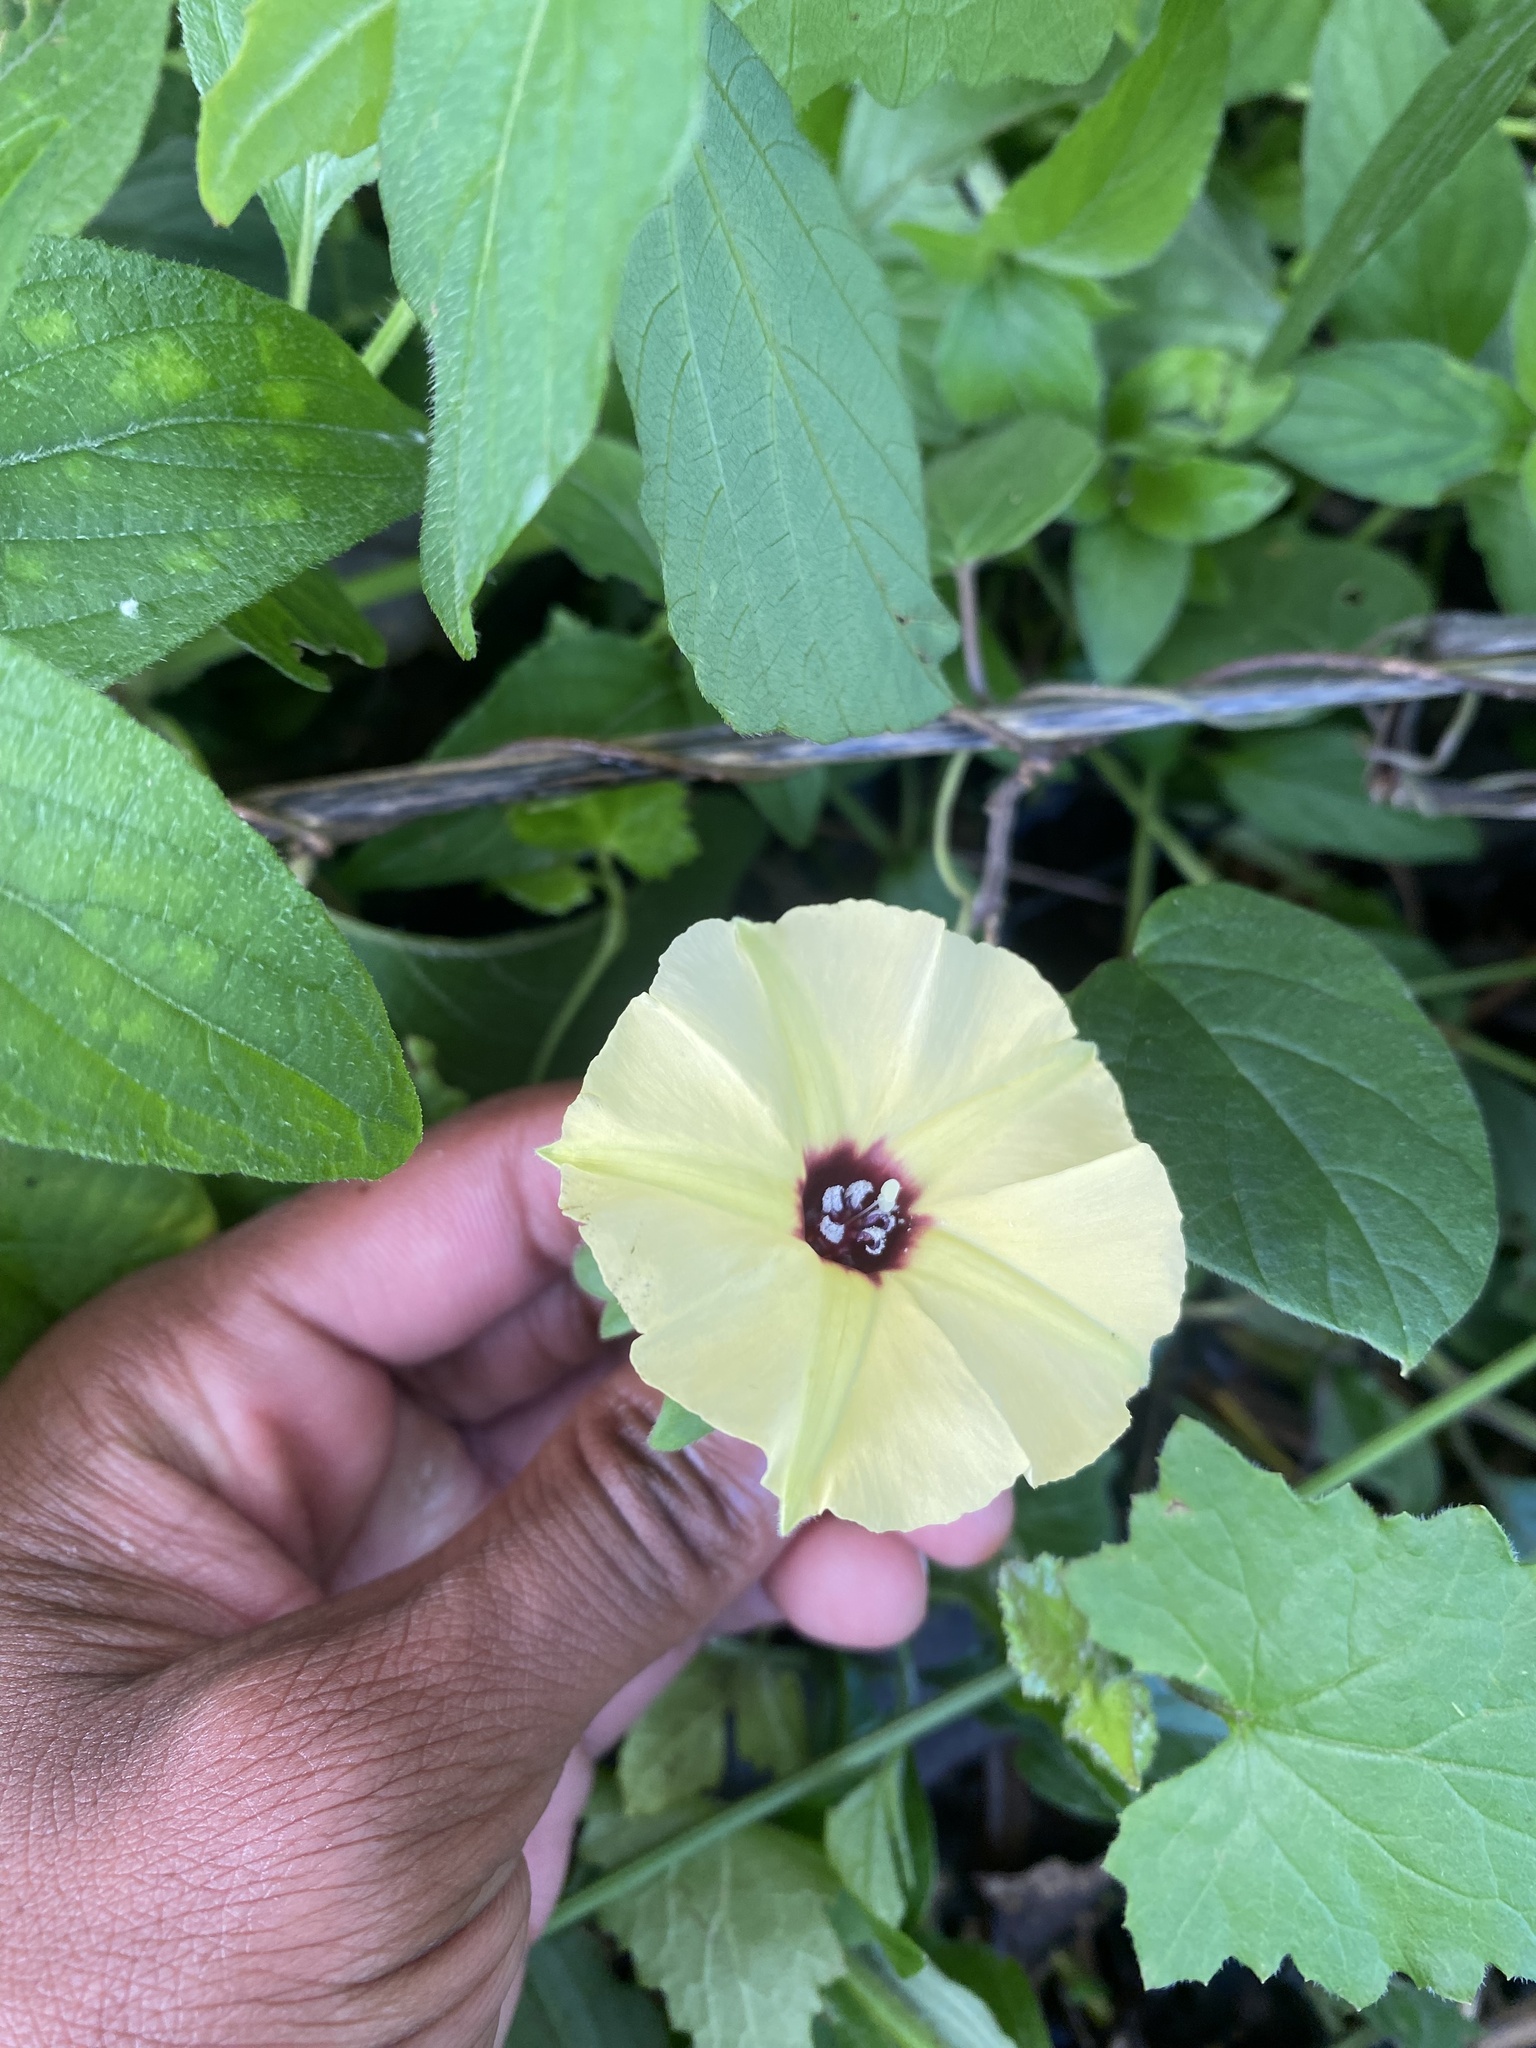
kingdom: Plantae
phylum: Tracheophyta
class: Magnoliopsida
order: Solanales
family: Convolvulaceae
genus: Hewittia
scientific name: Hewittia malabarica
